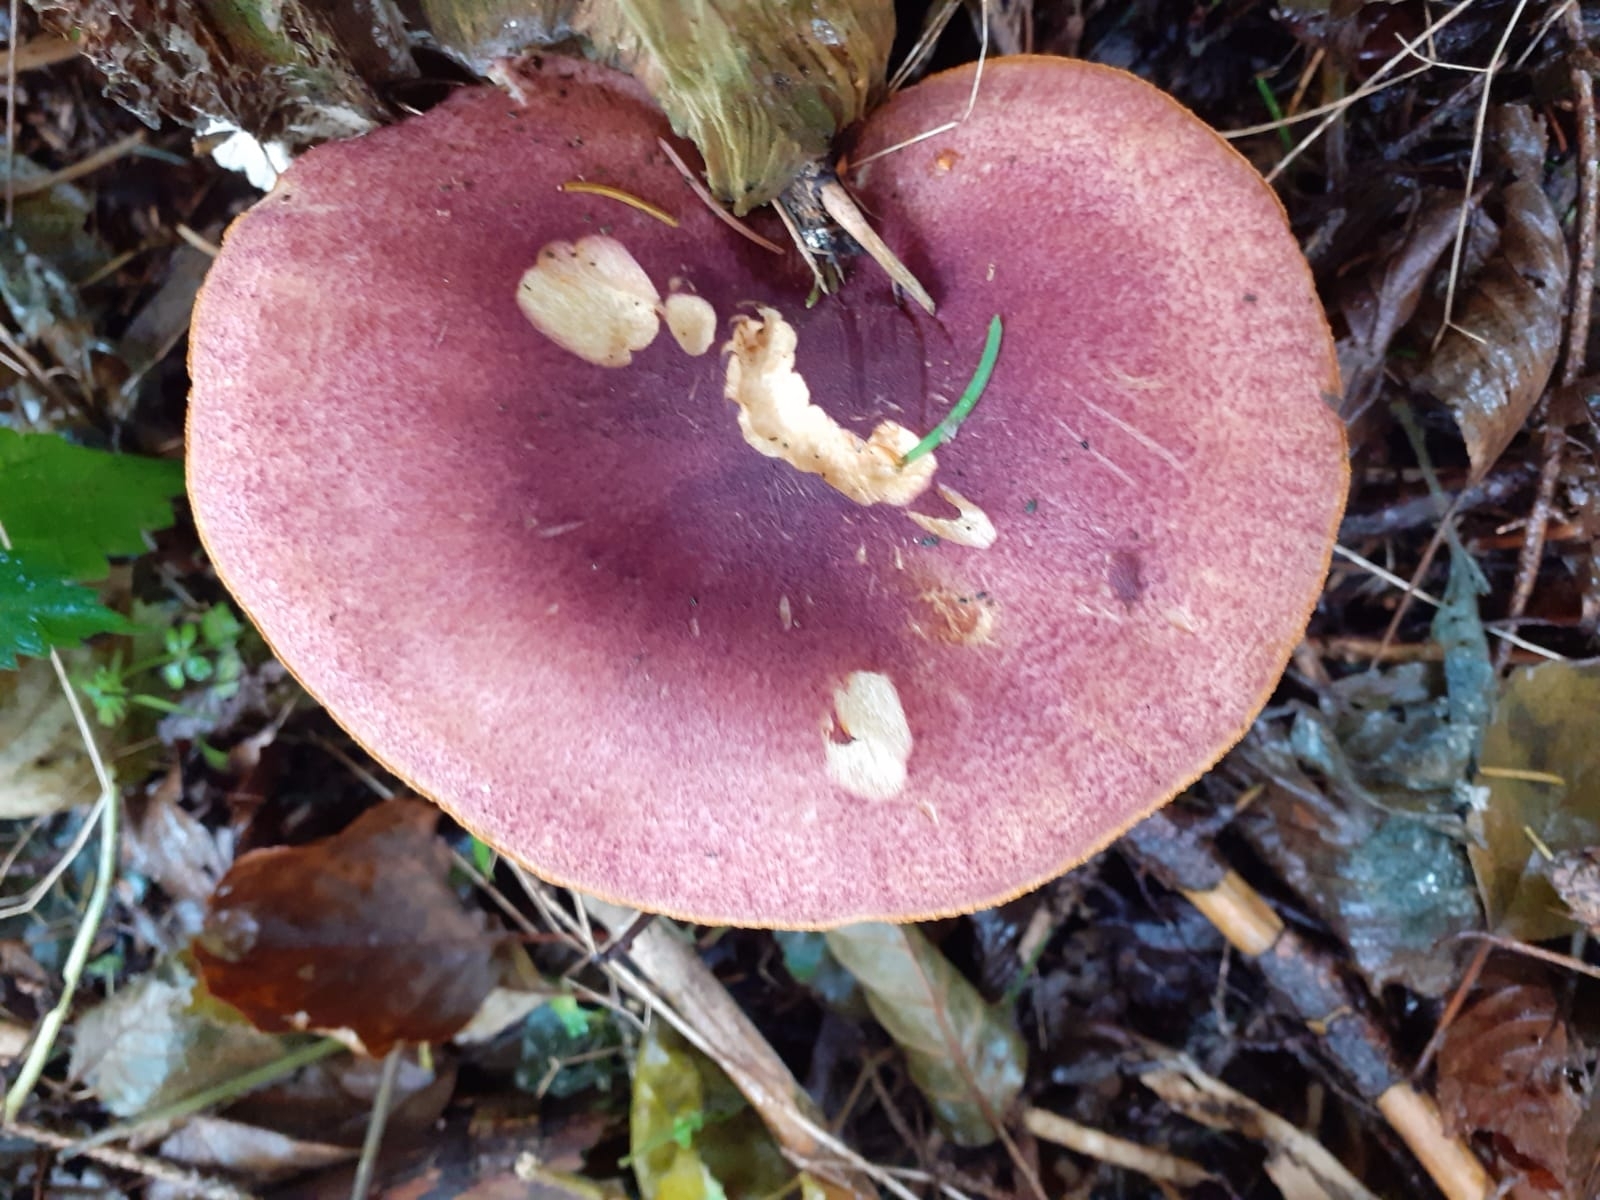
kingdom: Fungi
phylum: Basidiomycota
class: Agaricomycetes
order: Agaricales
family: Tricholomataceae
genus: Tricholomopsis
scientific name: Tricholomopsis rutilans
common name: Plums and custard
